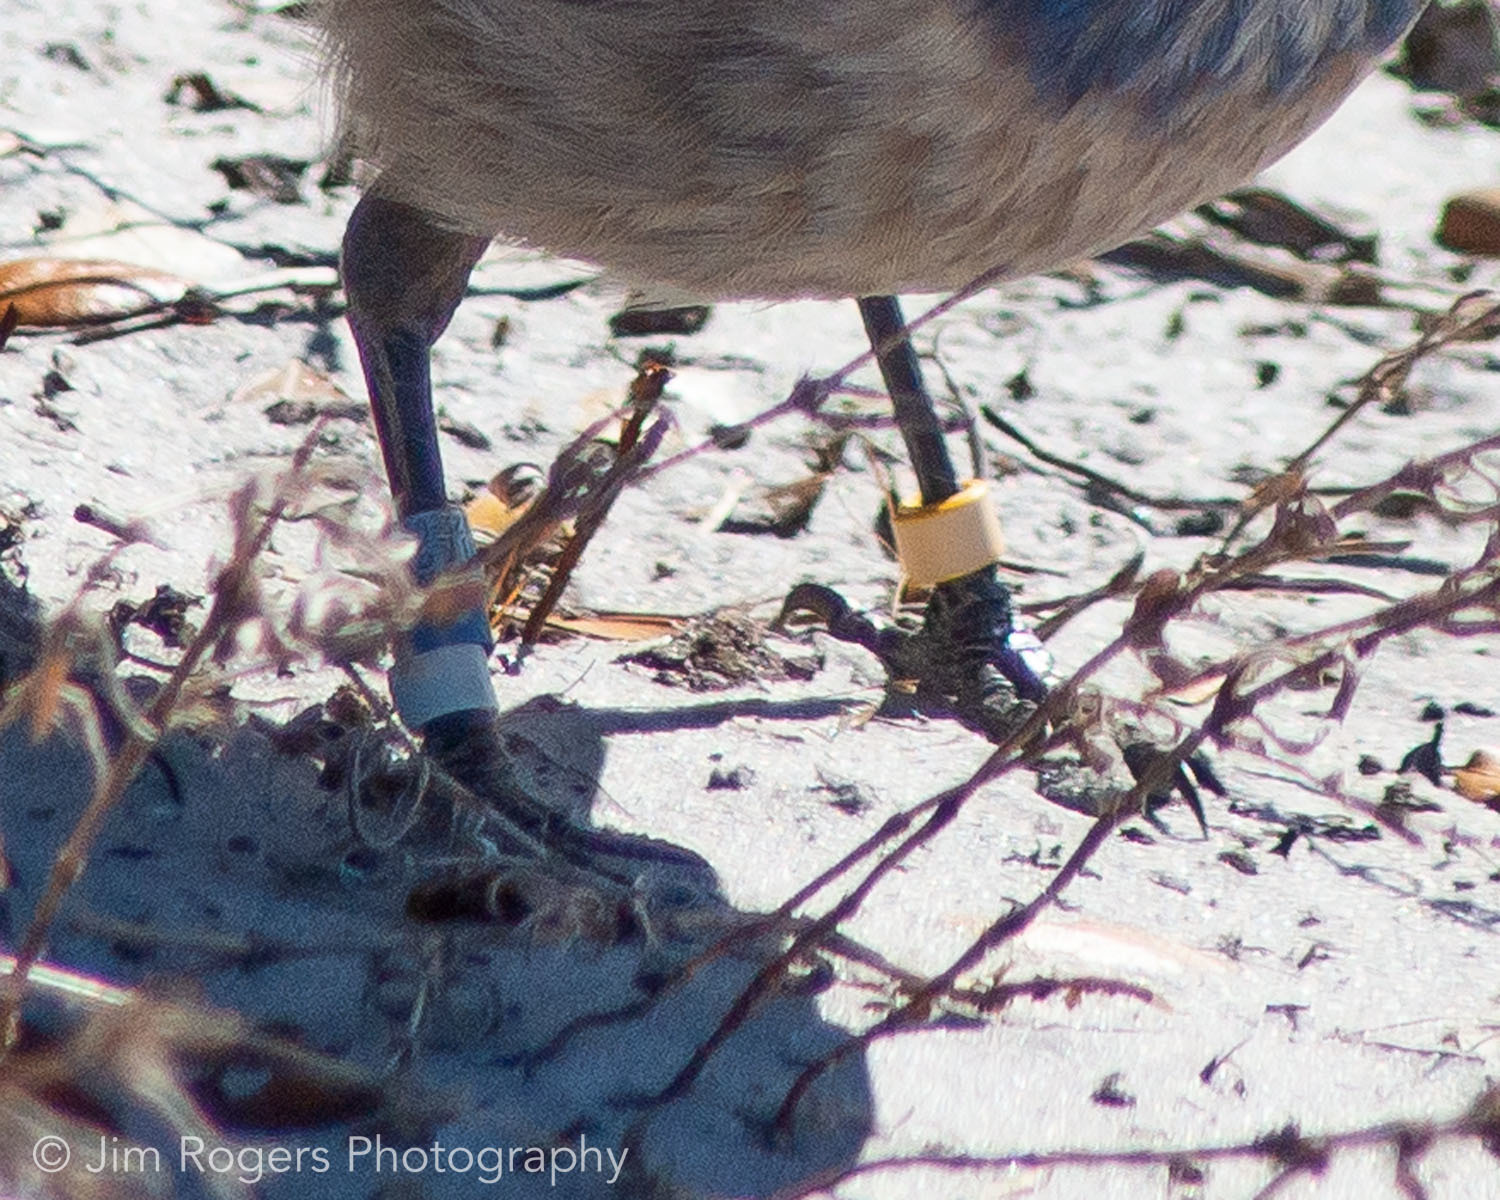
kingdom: Animalia
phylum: Chordata
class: Aves
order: Passeriformes
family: Corvidae
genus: Aphelocoma
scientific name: Aphelocoma coerulescens
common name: Florida scrub jay
